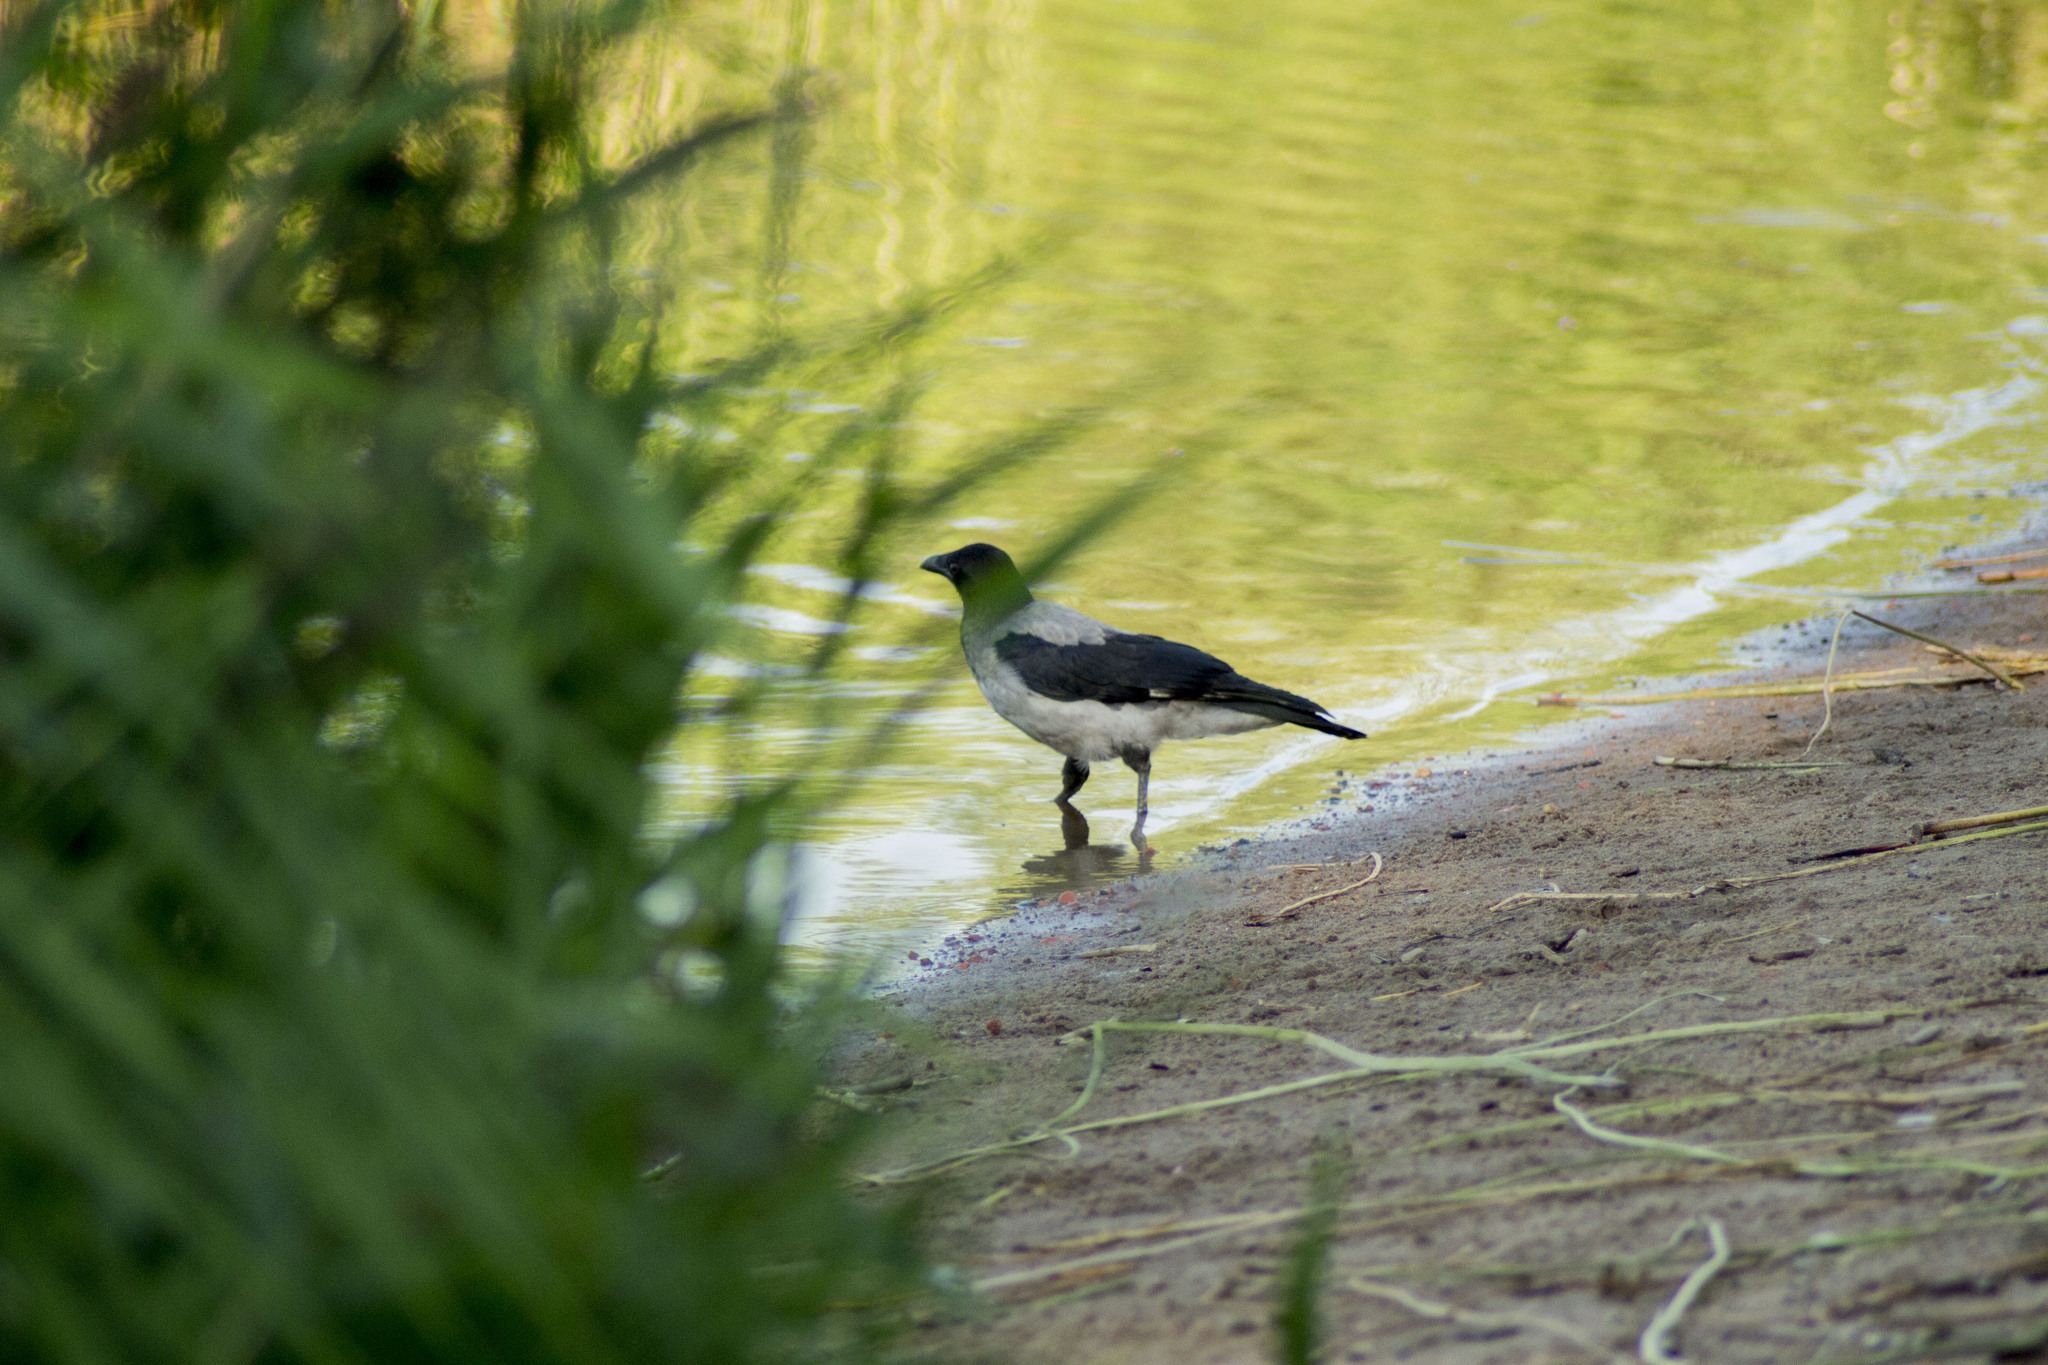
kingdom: Animalia
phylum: Chordata
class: Aves
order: Passeriformes
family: Corvidae
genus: Corvus
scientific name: Corvus cornix
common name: Hooded crow
